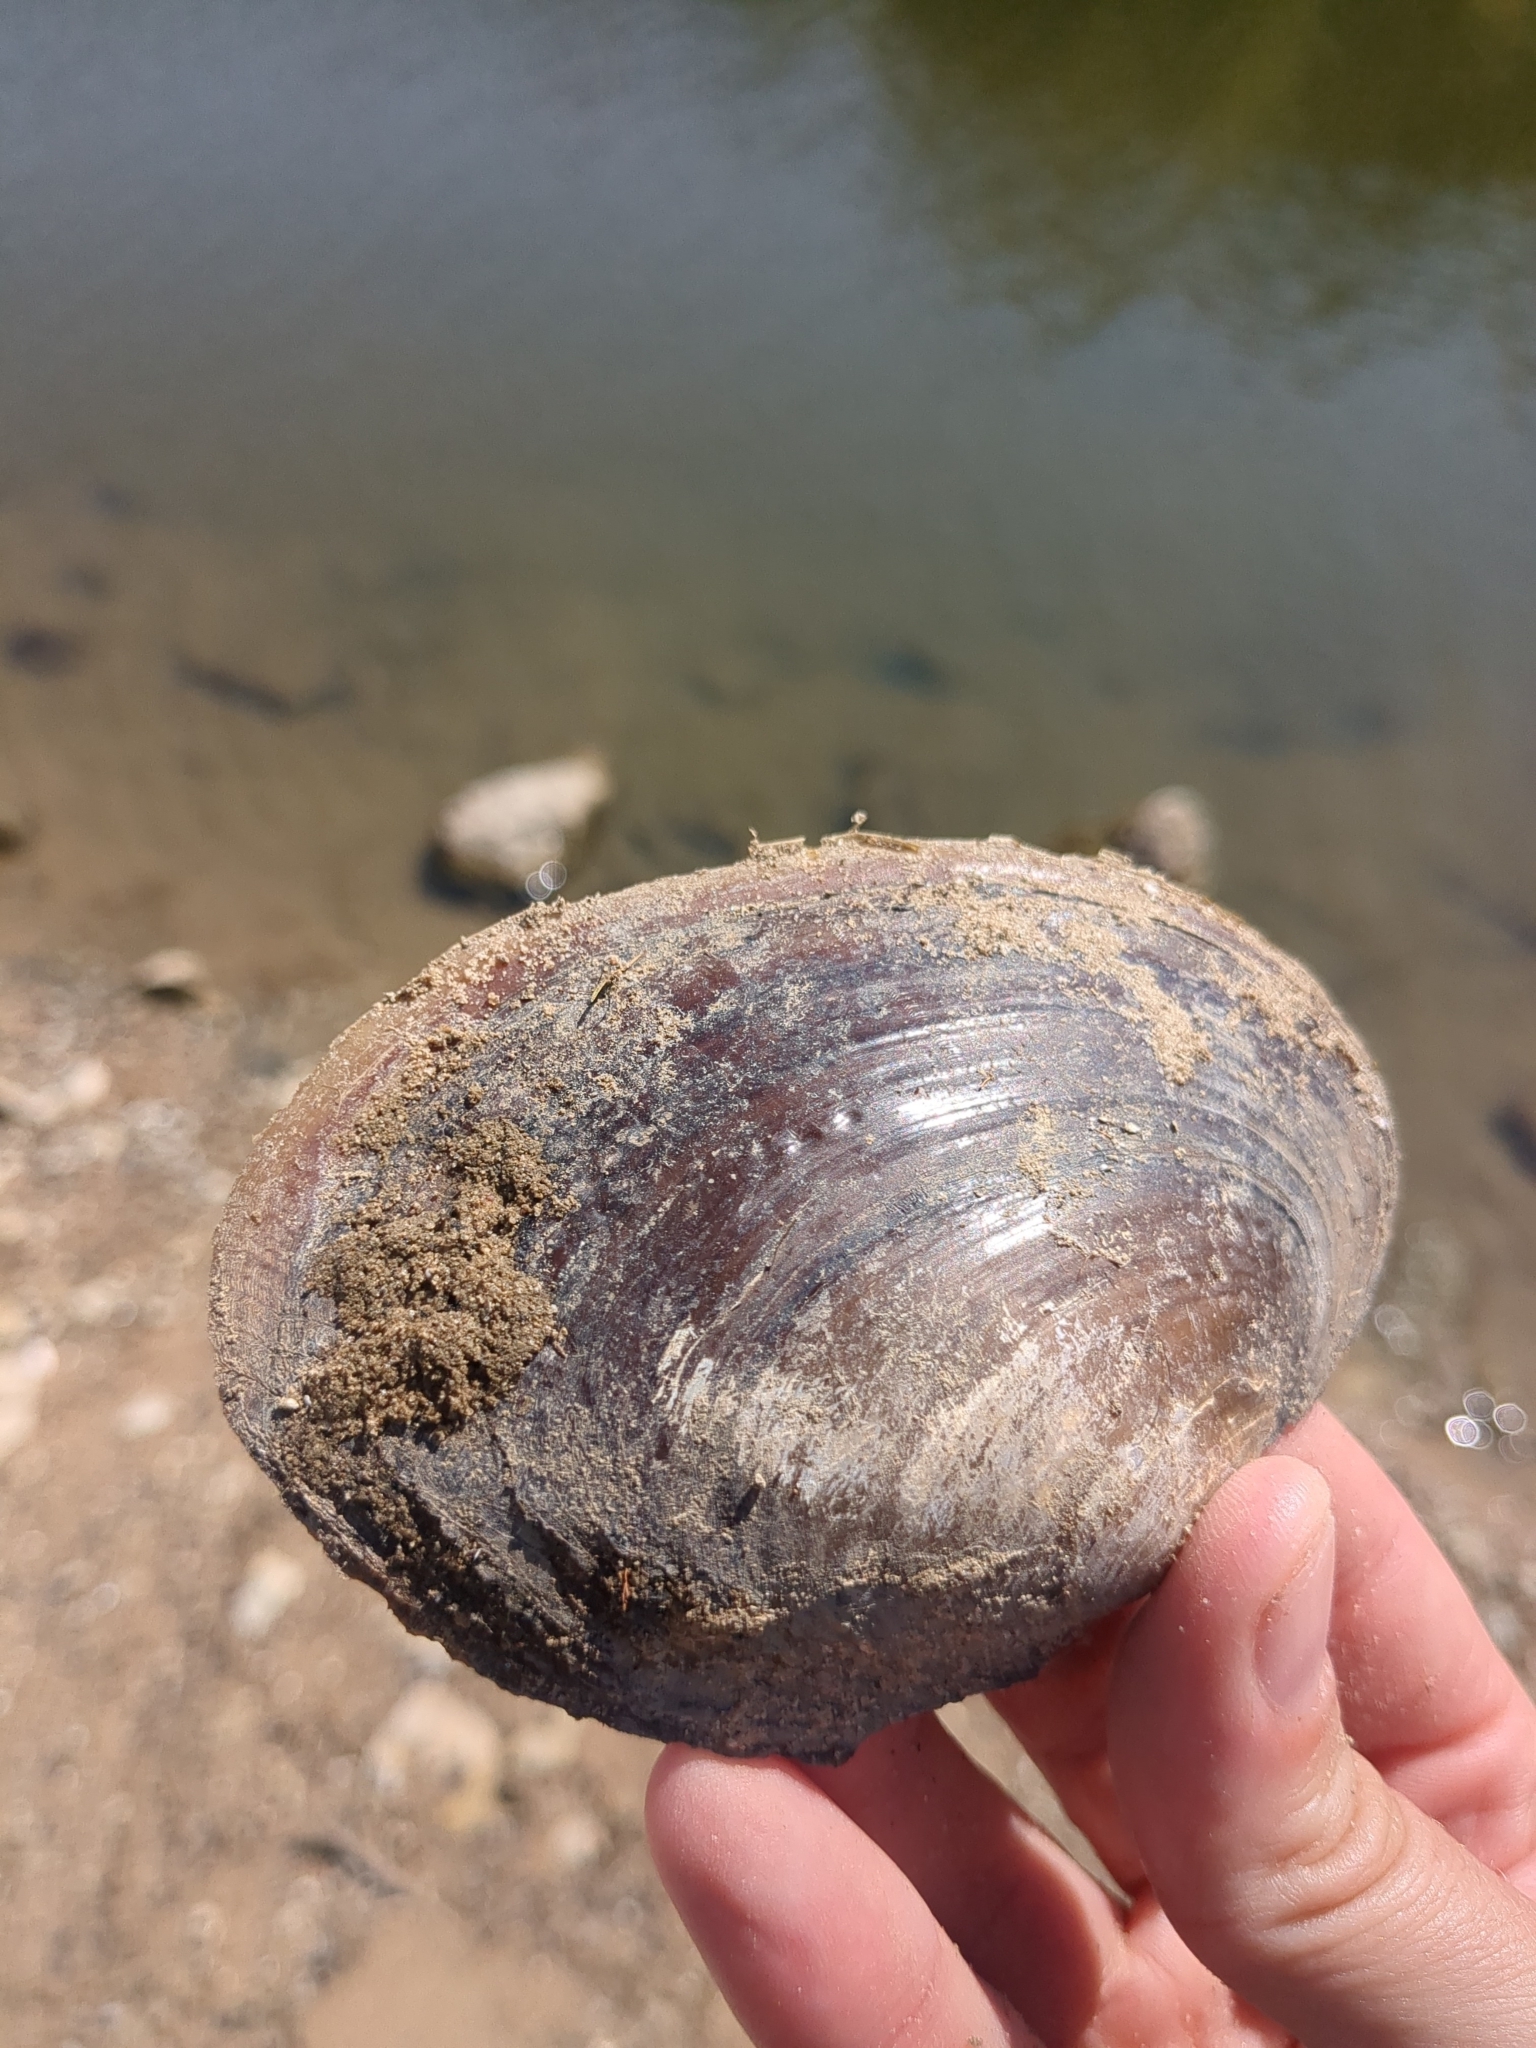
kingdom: Animalia
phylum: Mollusca
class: Bivalvia
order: Unionida
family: Unionidae
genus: Potamilus
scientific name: Potamilus ohiensis
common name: Pink papershell
